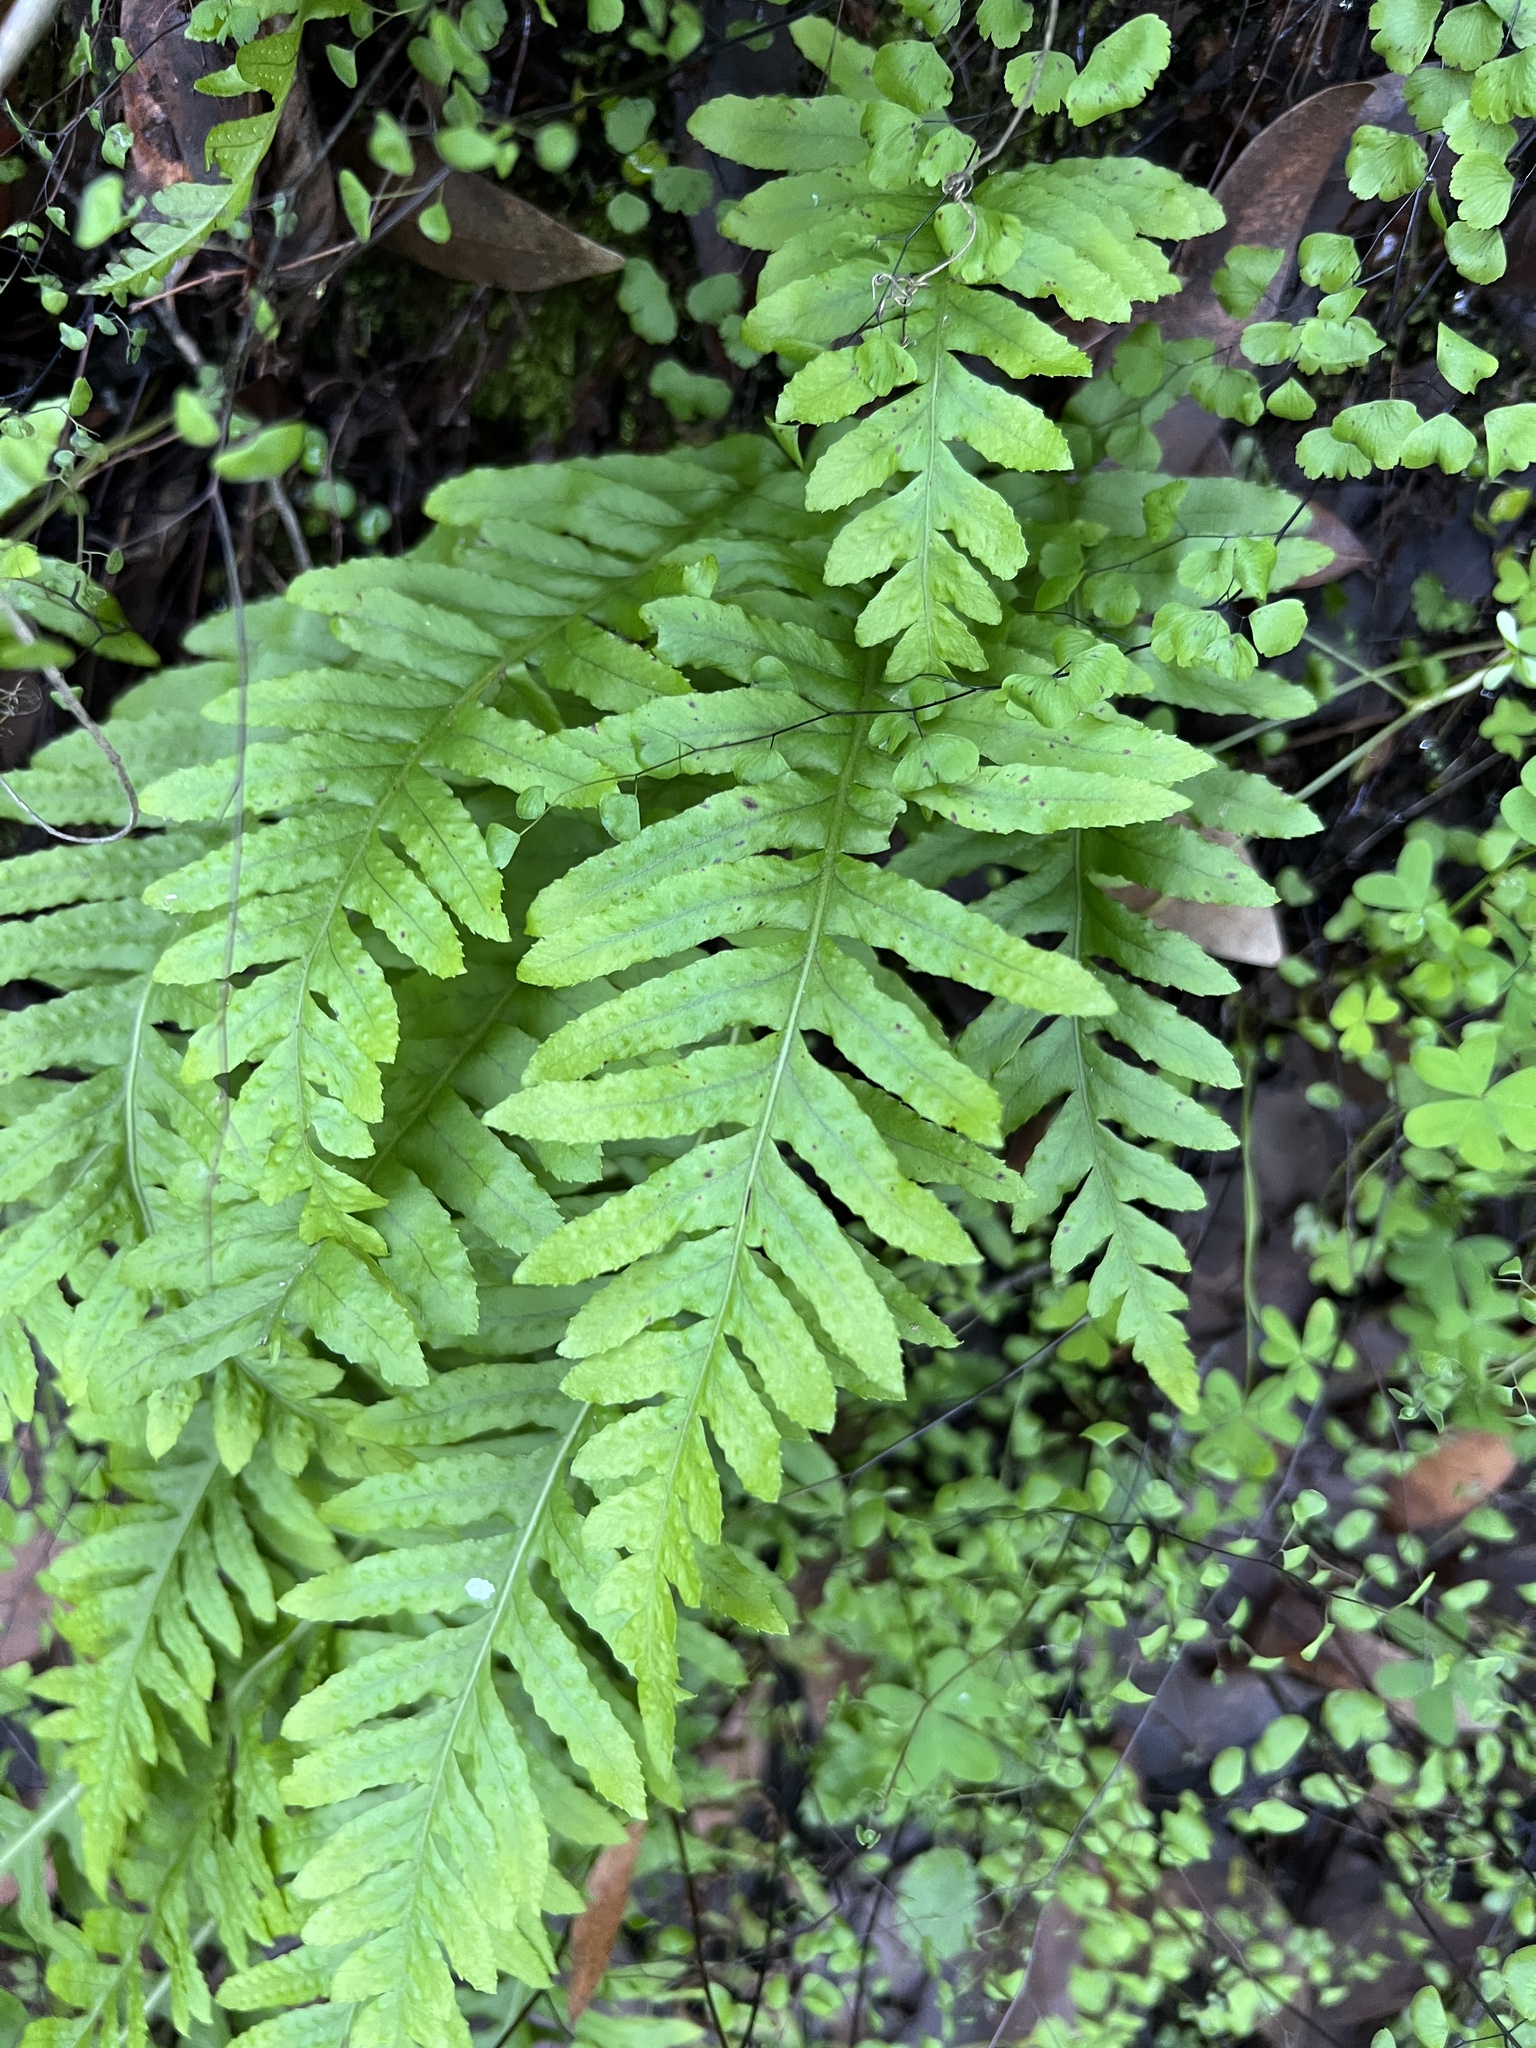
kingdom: Plantae
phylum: Tracheophyta
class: Polypodiopsida
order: Polypodiales
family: Polypodiaceae
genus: Polypodium
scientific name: Polypodium californicum
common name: California polypody
